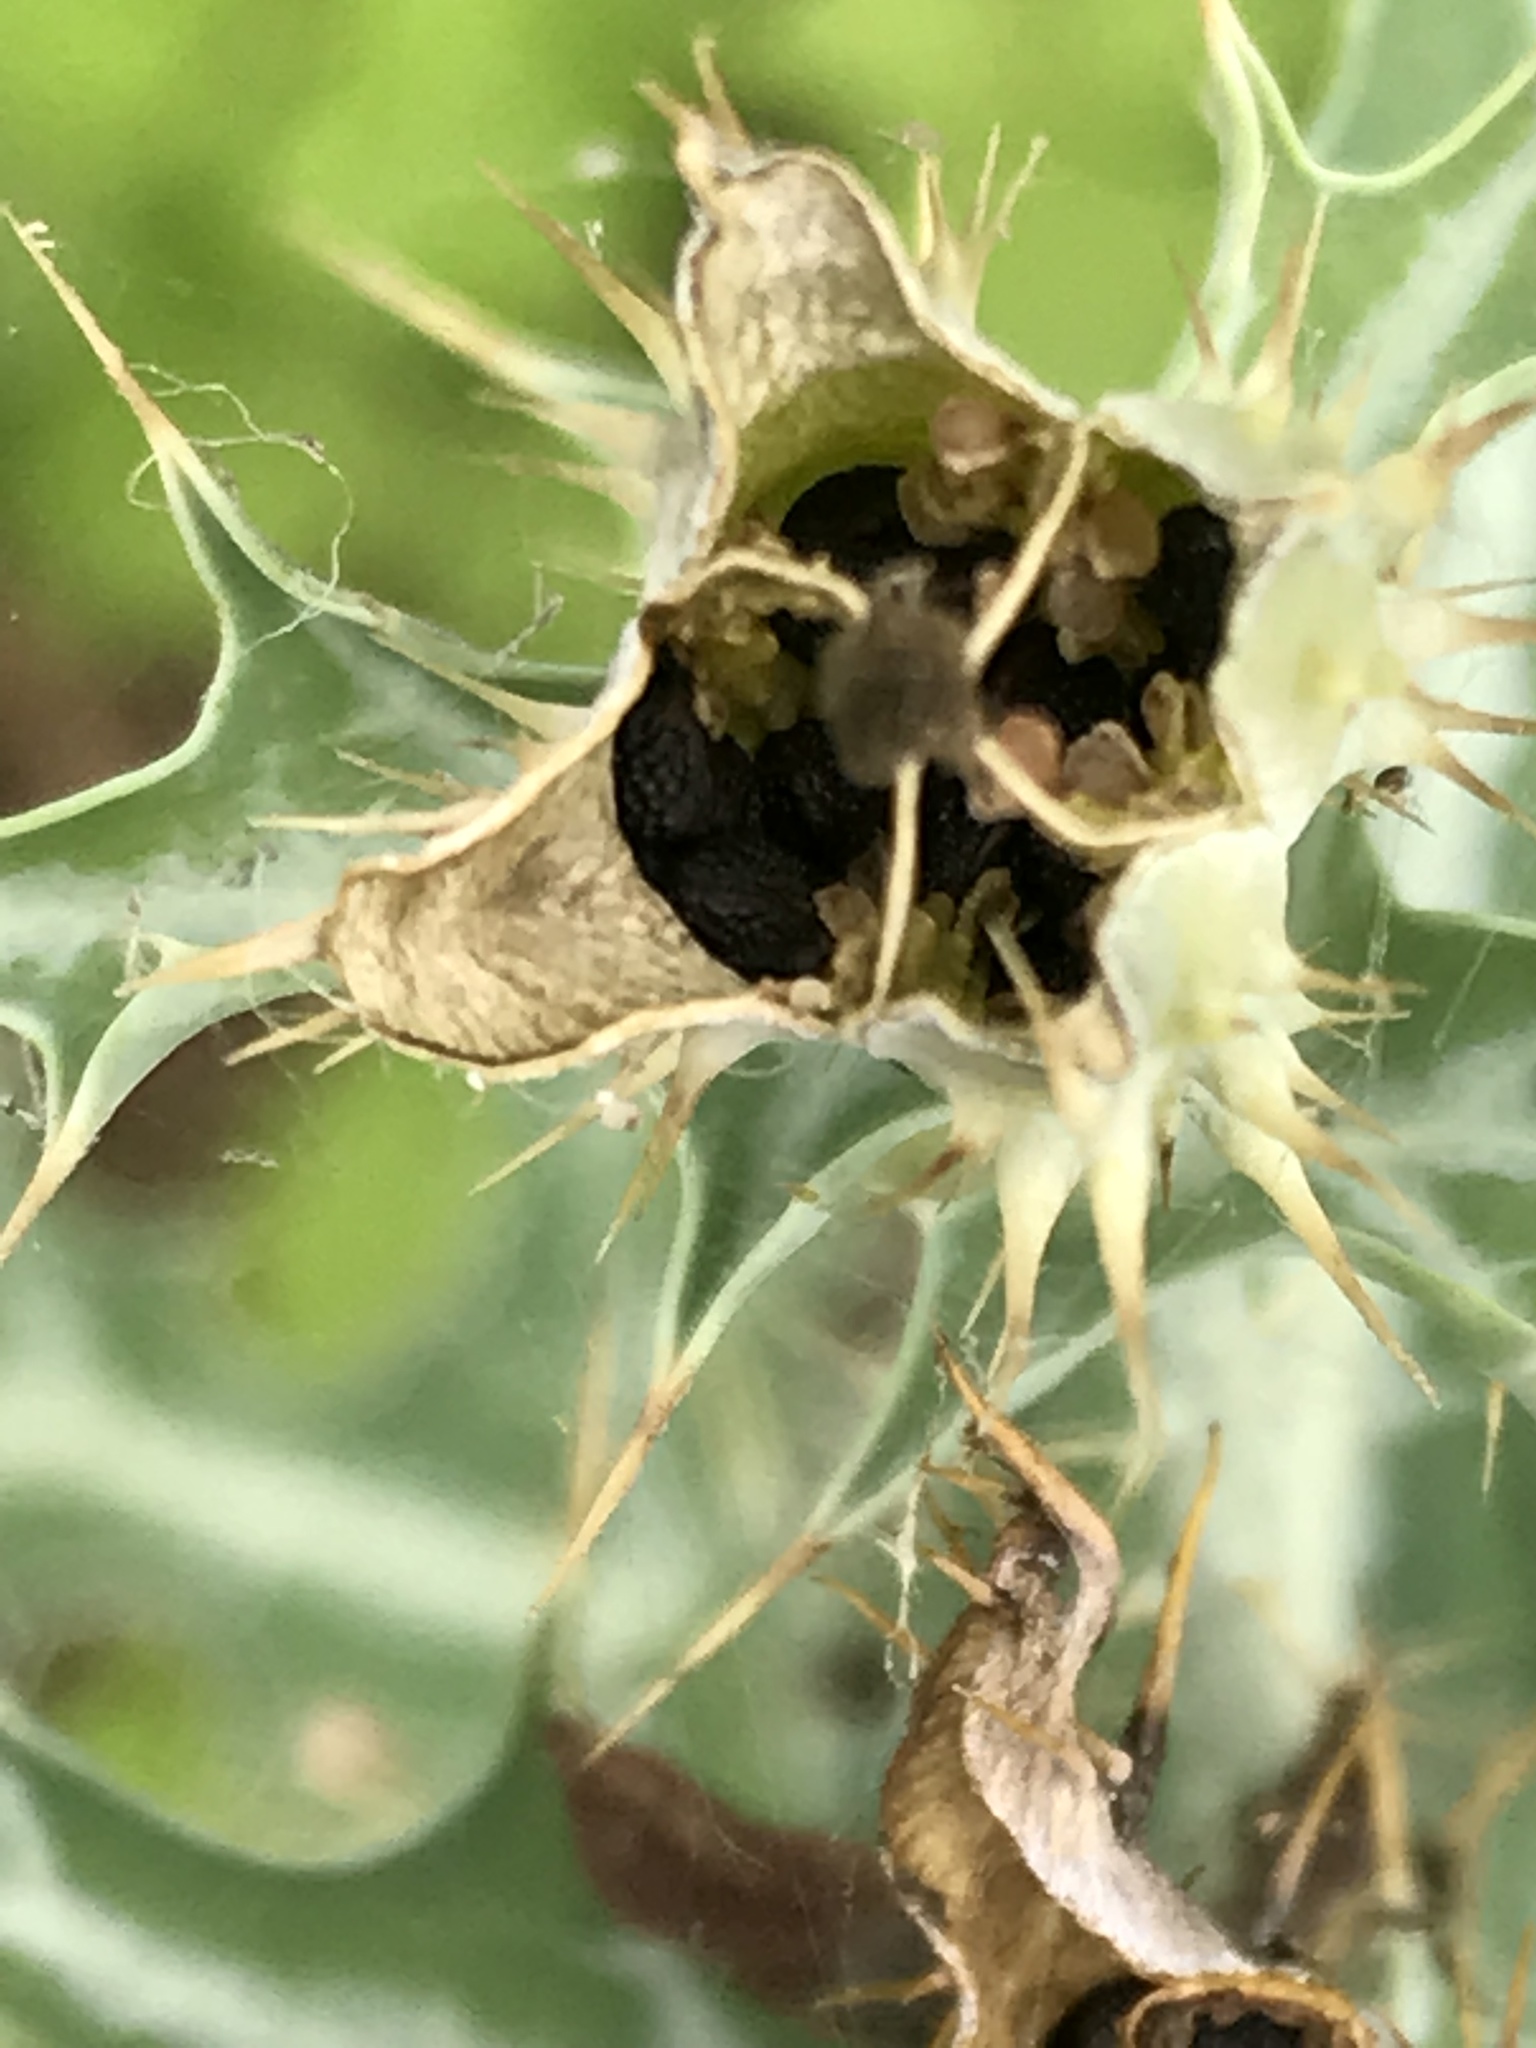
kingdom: Plantae
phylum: Tracheophyta
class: Magnoliopsida
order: Ranunculales
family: Papaveraceae
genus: Argemone
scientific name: Argemone mexicana
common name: Mexican poppy
